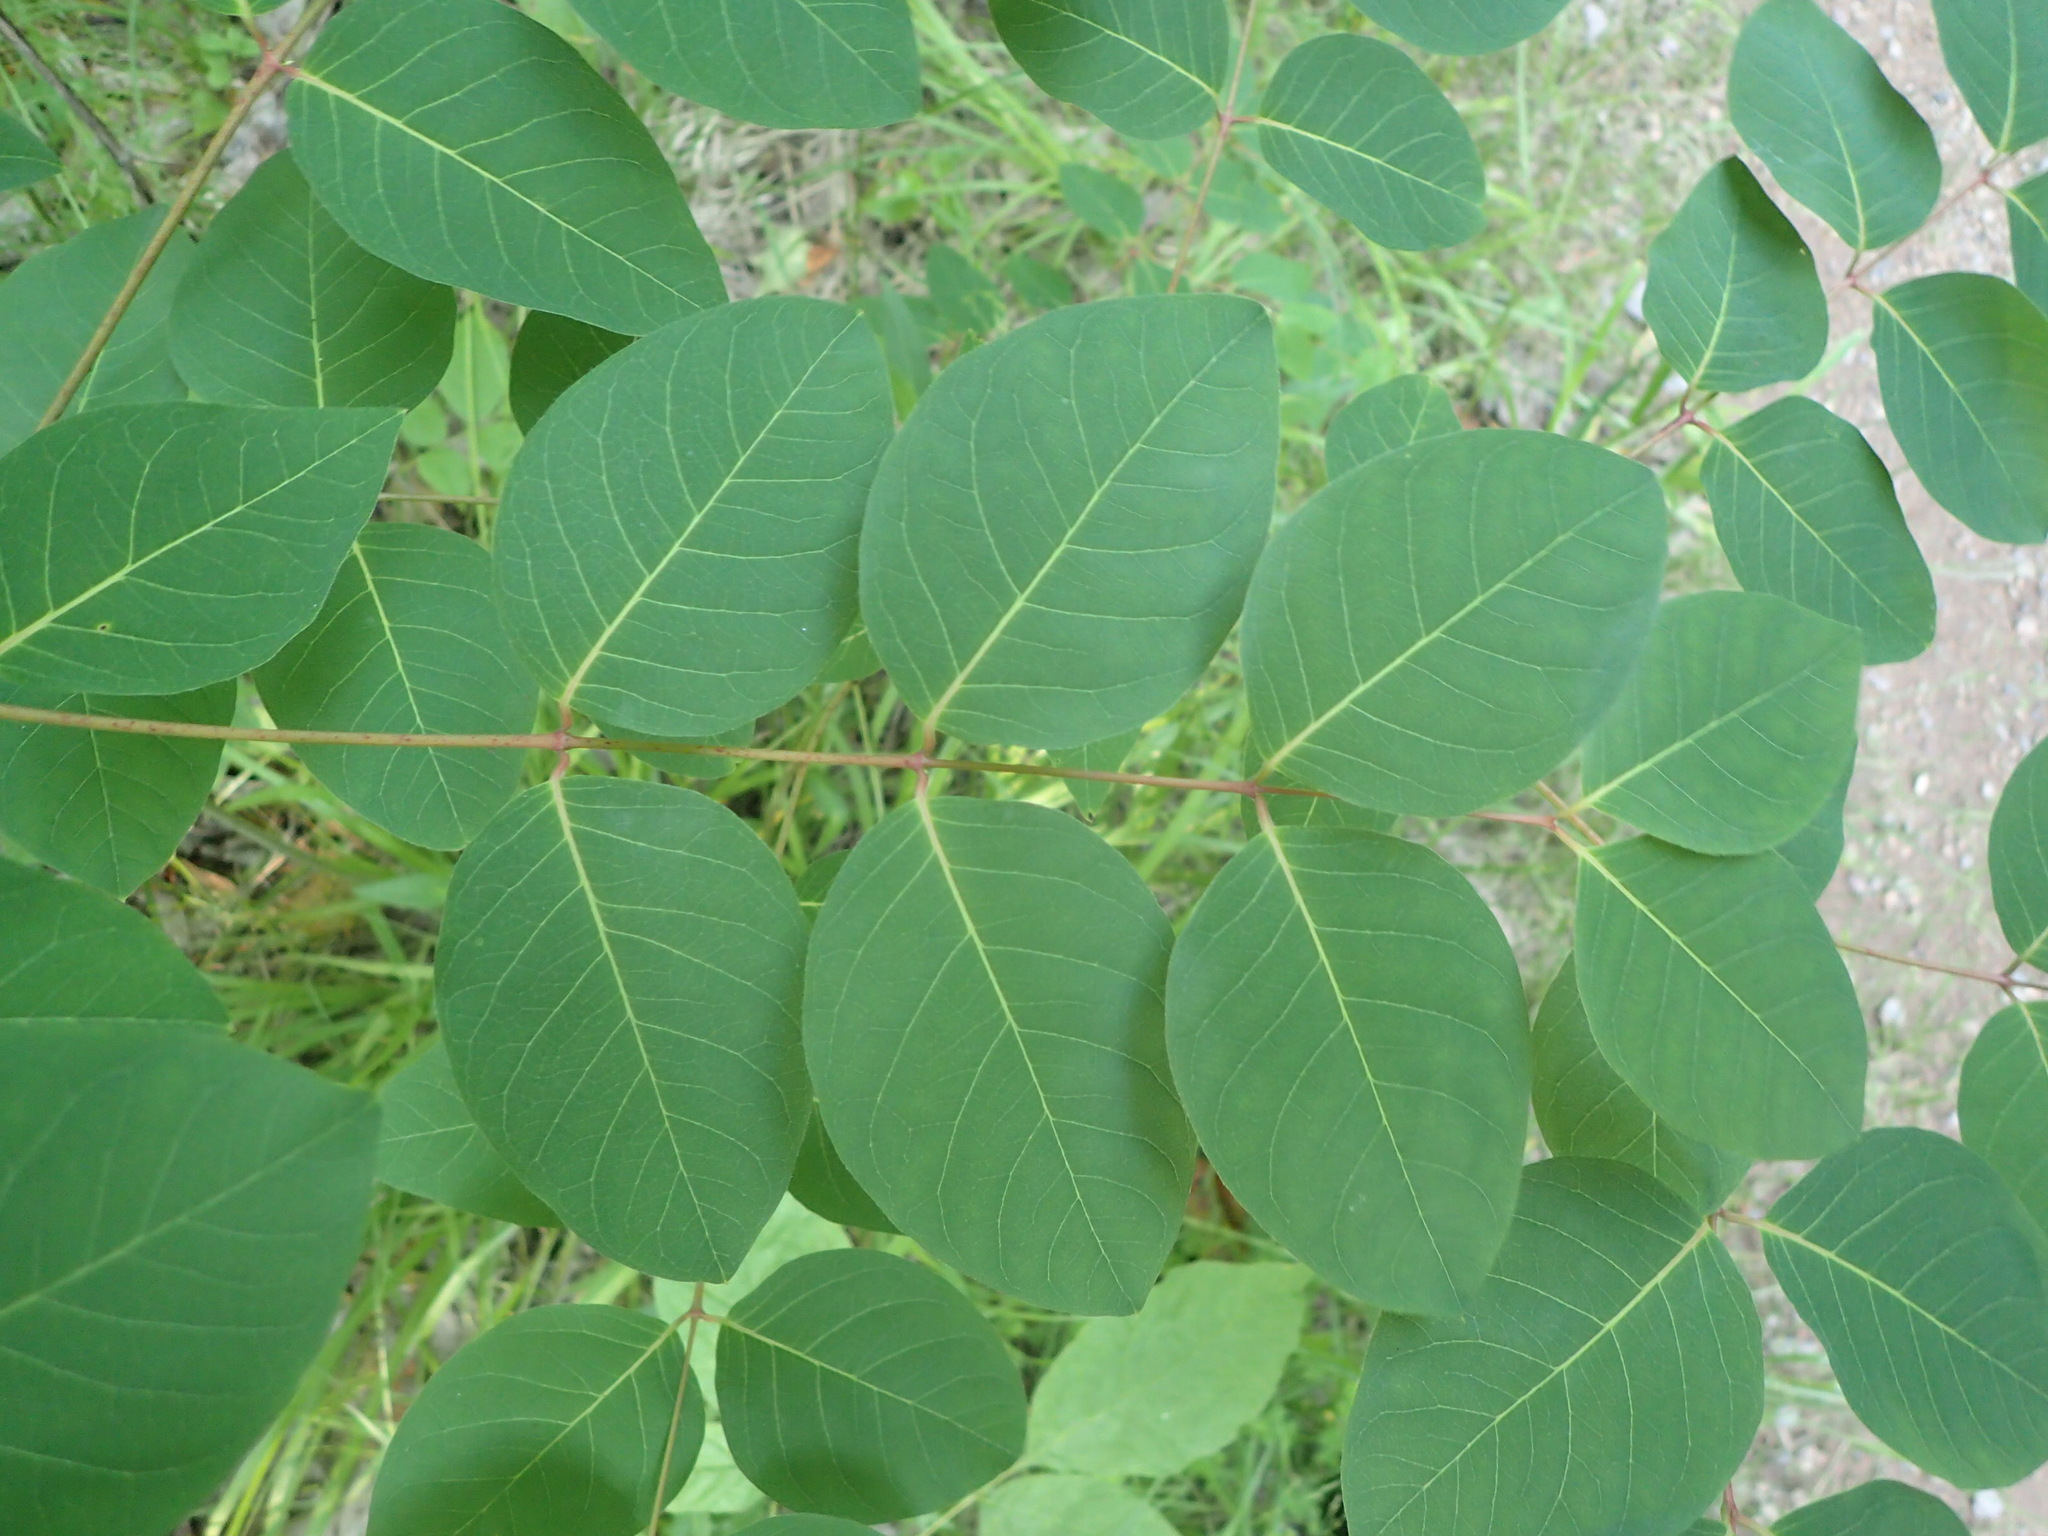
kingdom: Plantae
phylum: Tracheophyta
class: Magnoliopsida
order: Gentianales
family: Apocynaceae
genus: Apocynum
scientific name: Apocynum androsaemifolium
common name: Spreading dogbane
